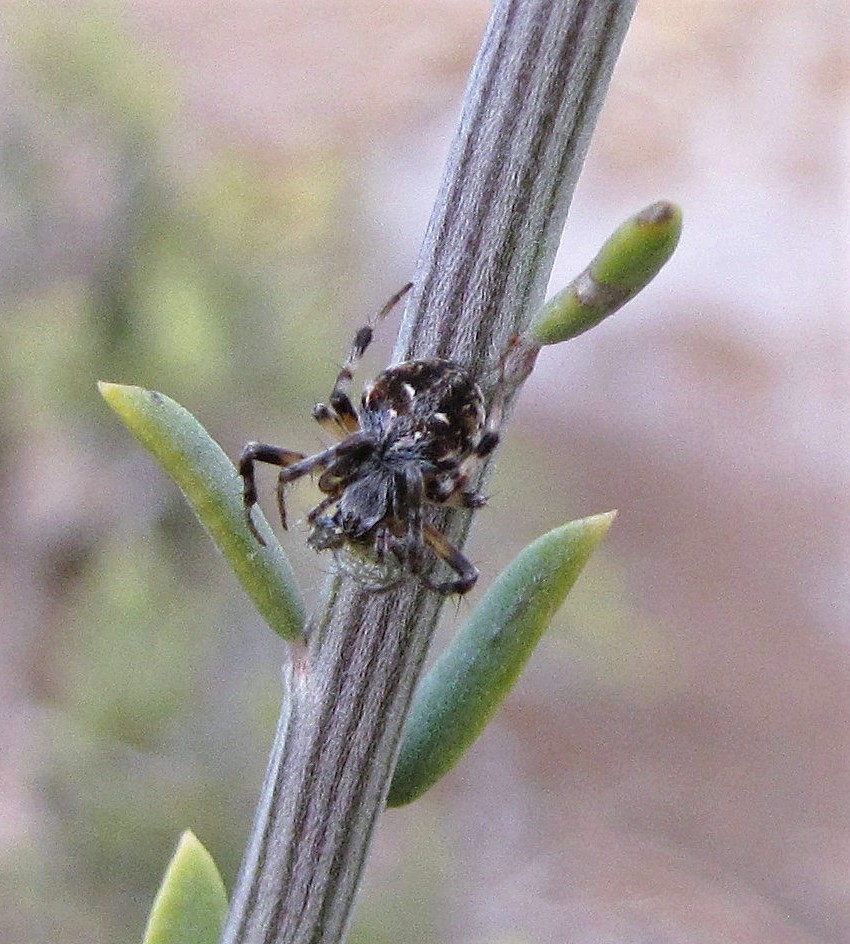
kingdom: Animalia
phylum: Arthropoda
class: Arachnida
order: Araneae
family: Araneidae
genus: Metepeira
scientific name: Metepeira
